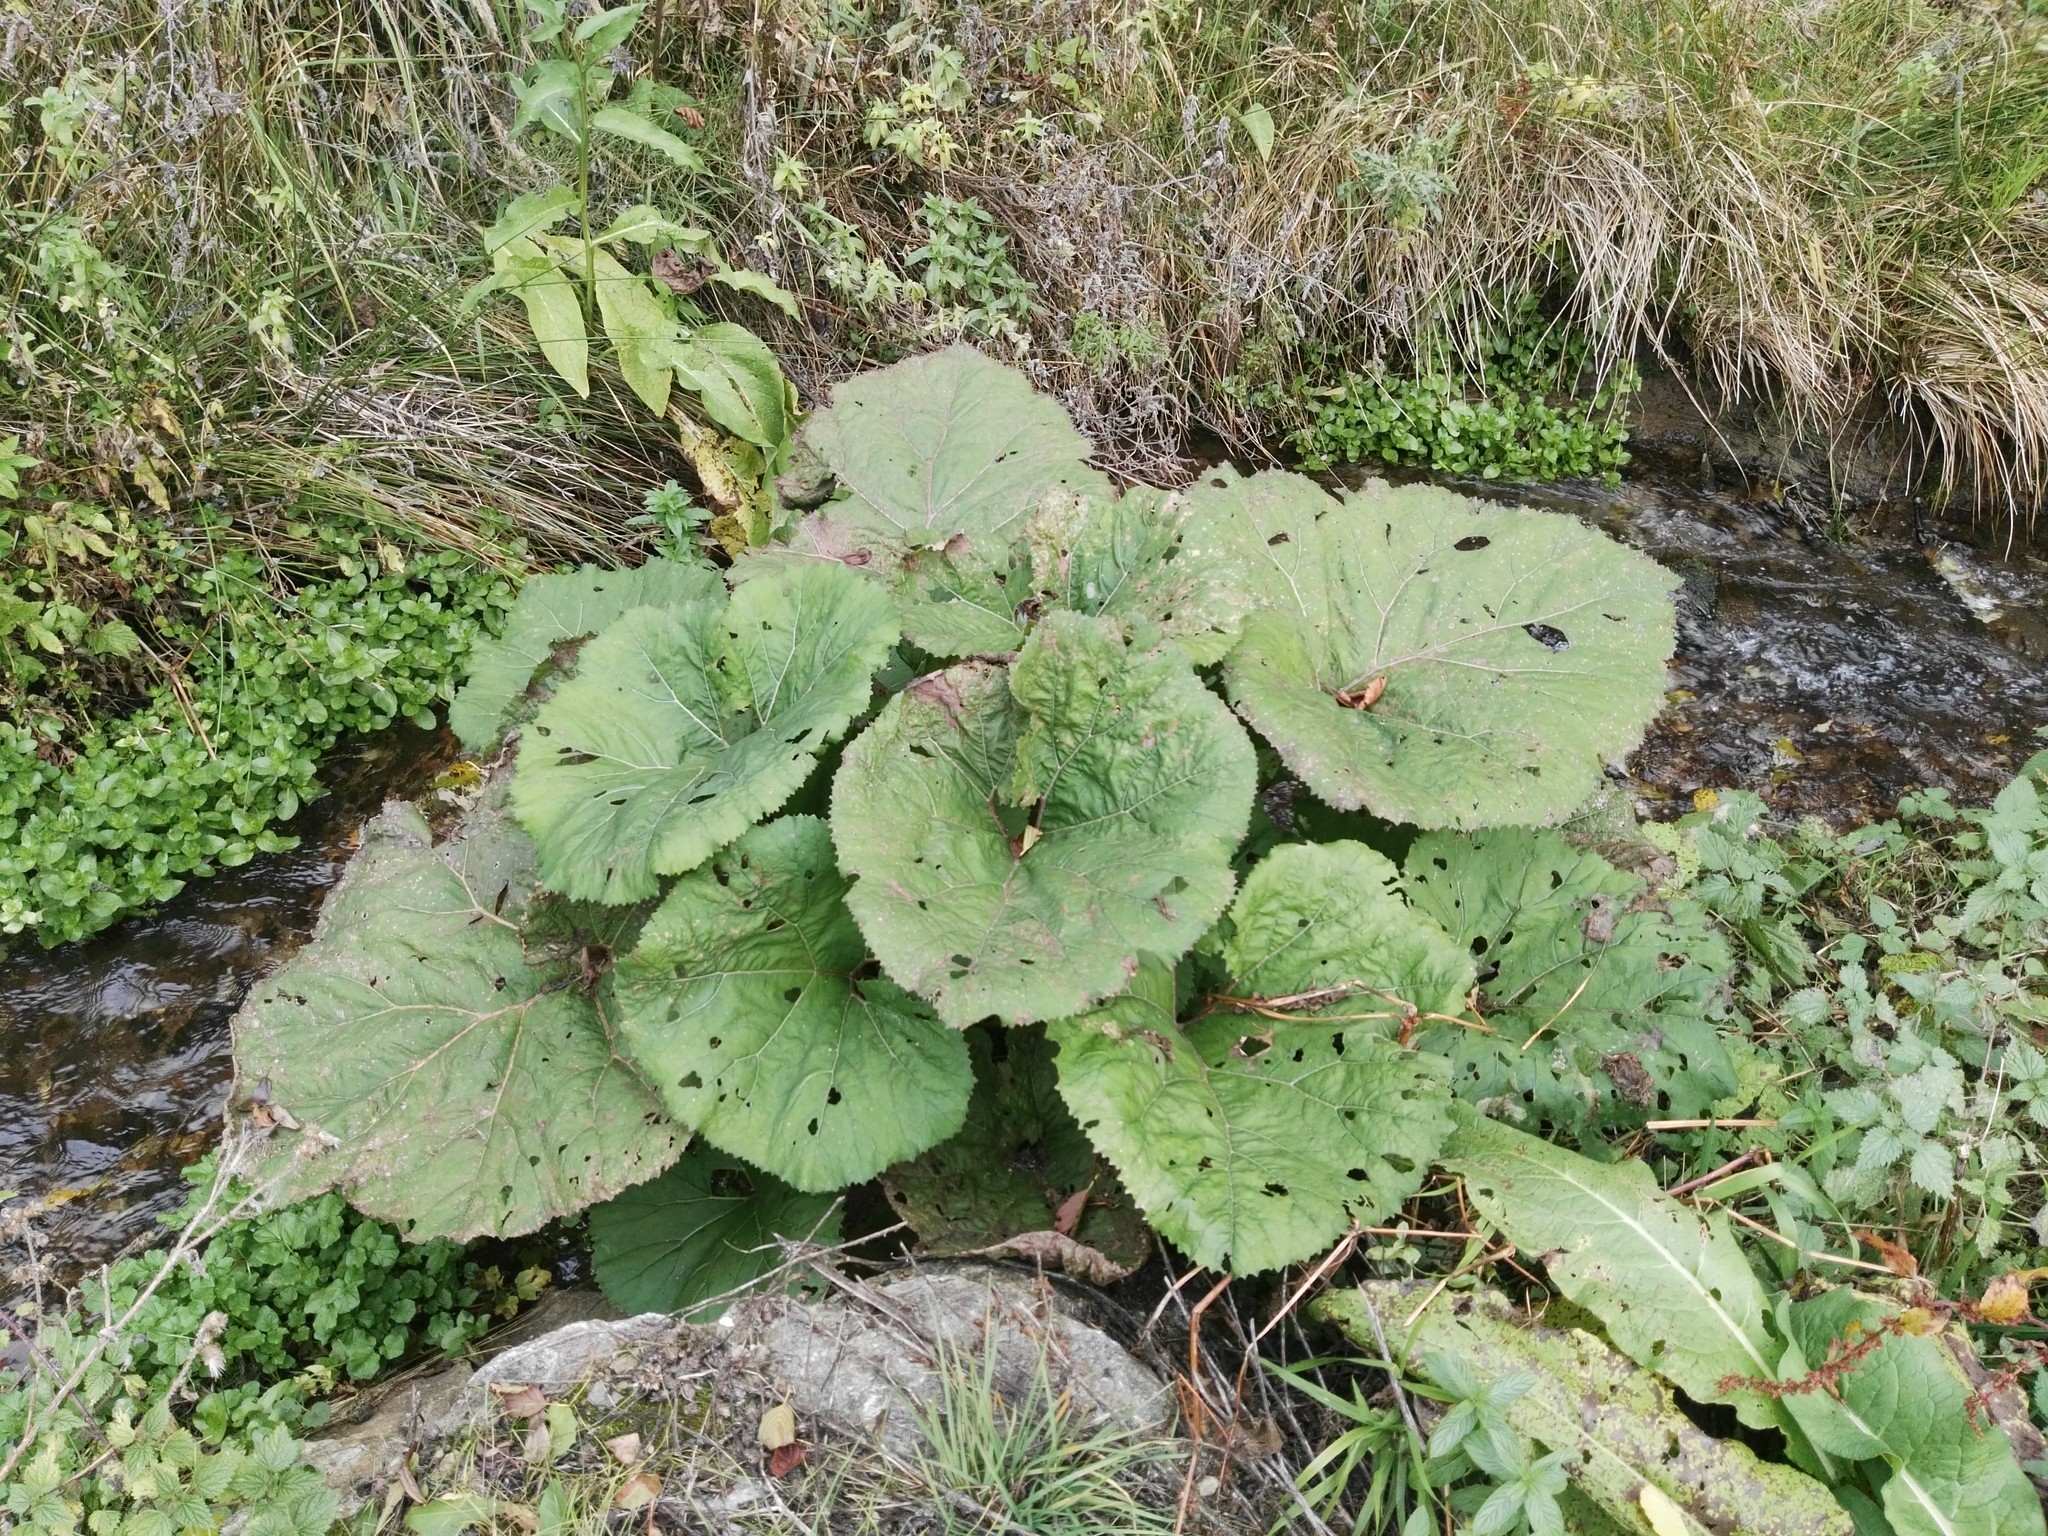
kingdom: Plantae
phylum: Tracheophyta
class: Magnoliopsida
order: Asterales
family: Asteraceae
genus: Petasites
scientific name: Petasites hybridus
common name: Butterbur
